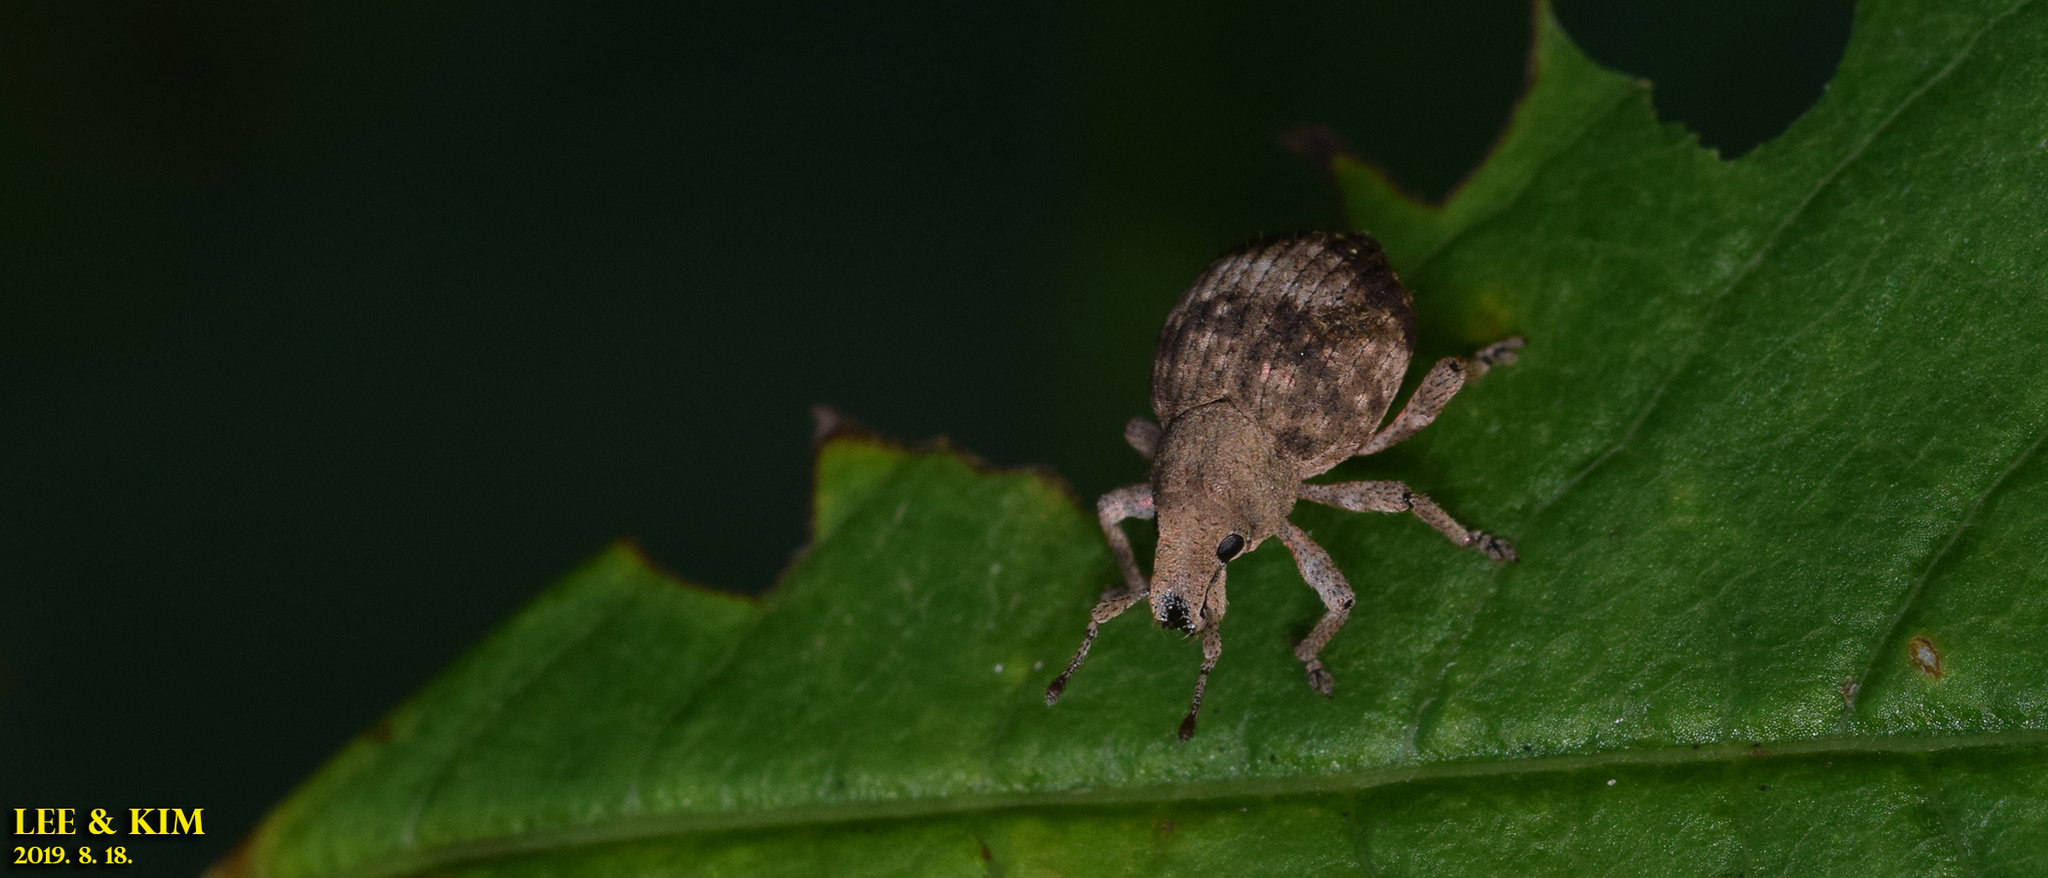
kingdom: Animalia
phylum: Arthropoda
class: Insecta
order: Coleoptera
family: Curculionidae
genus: Pseudocneorhinus
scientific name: Pseudocneorhinus bifasciatus
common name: Two-banded japanese weevil
